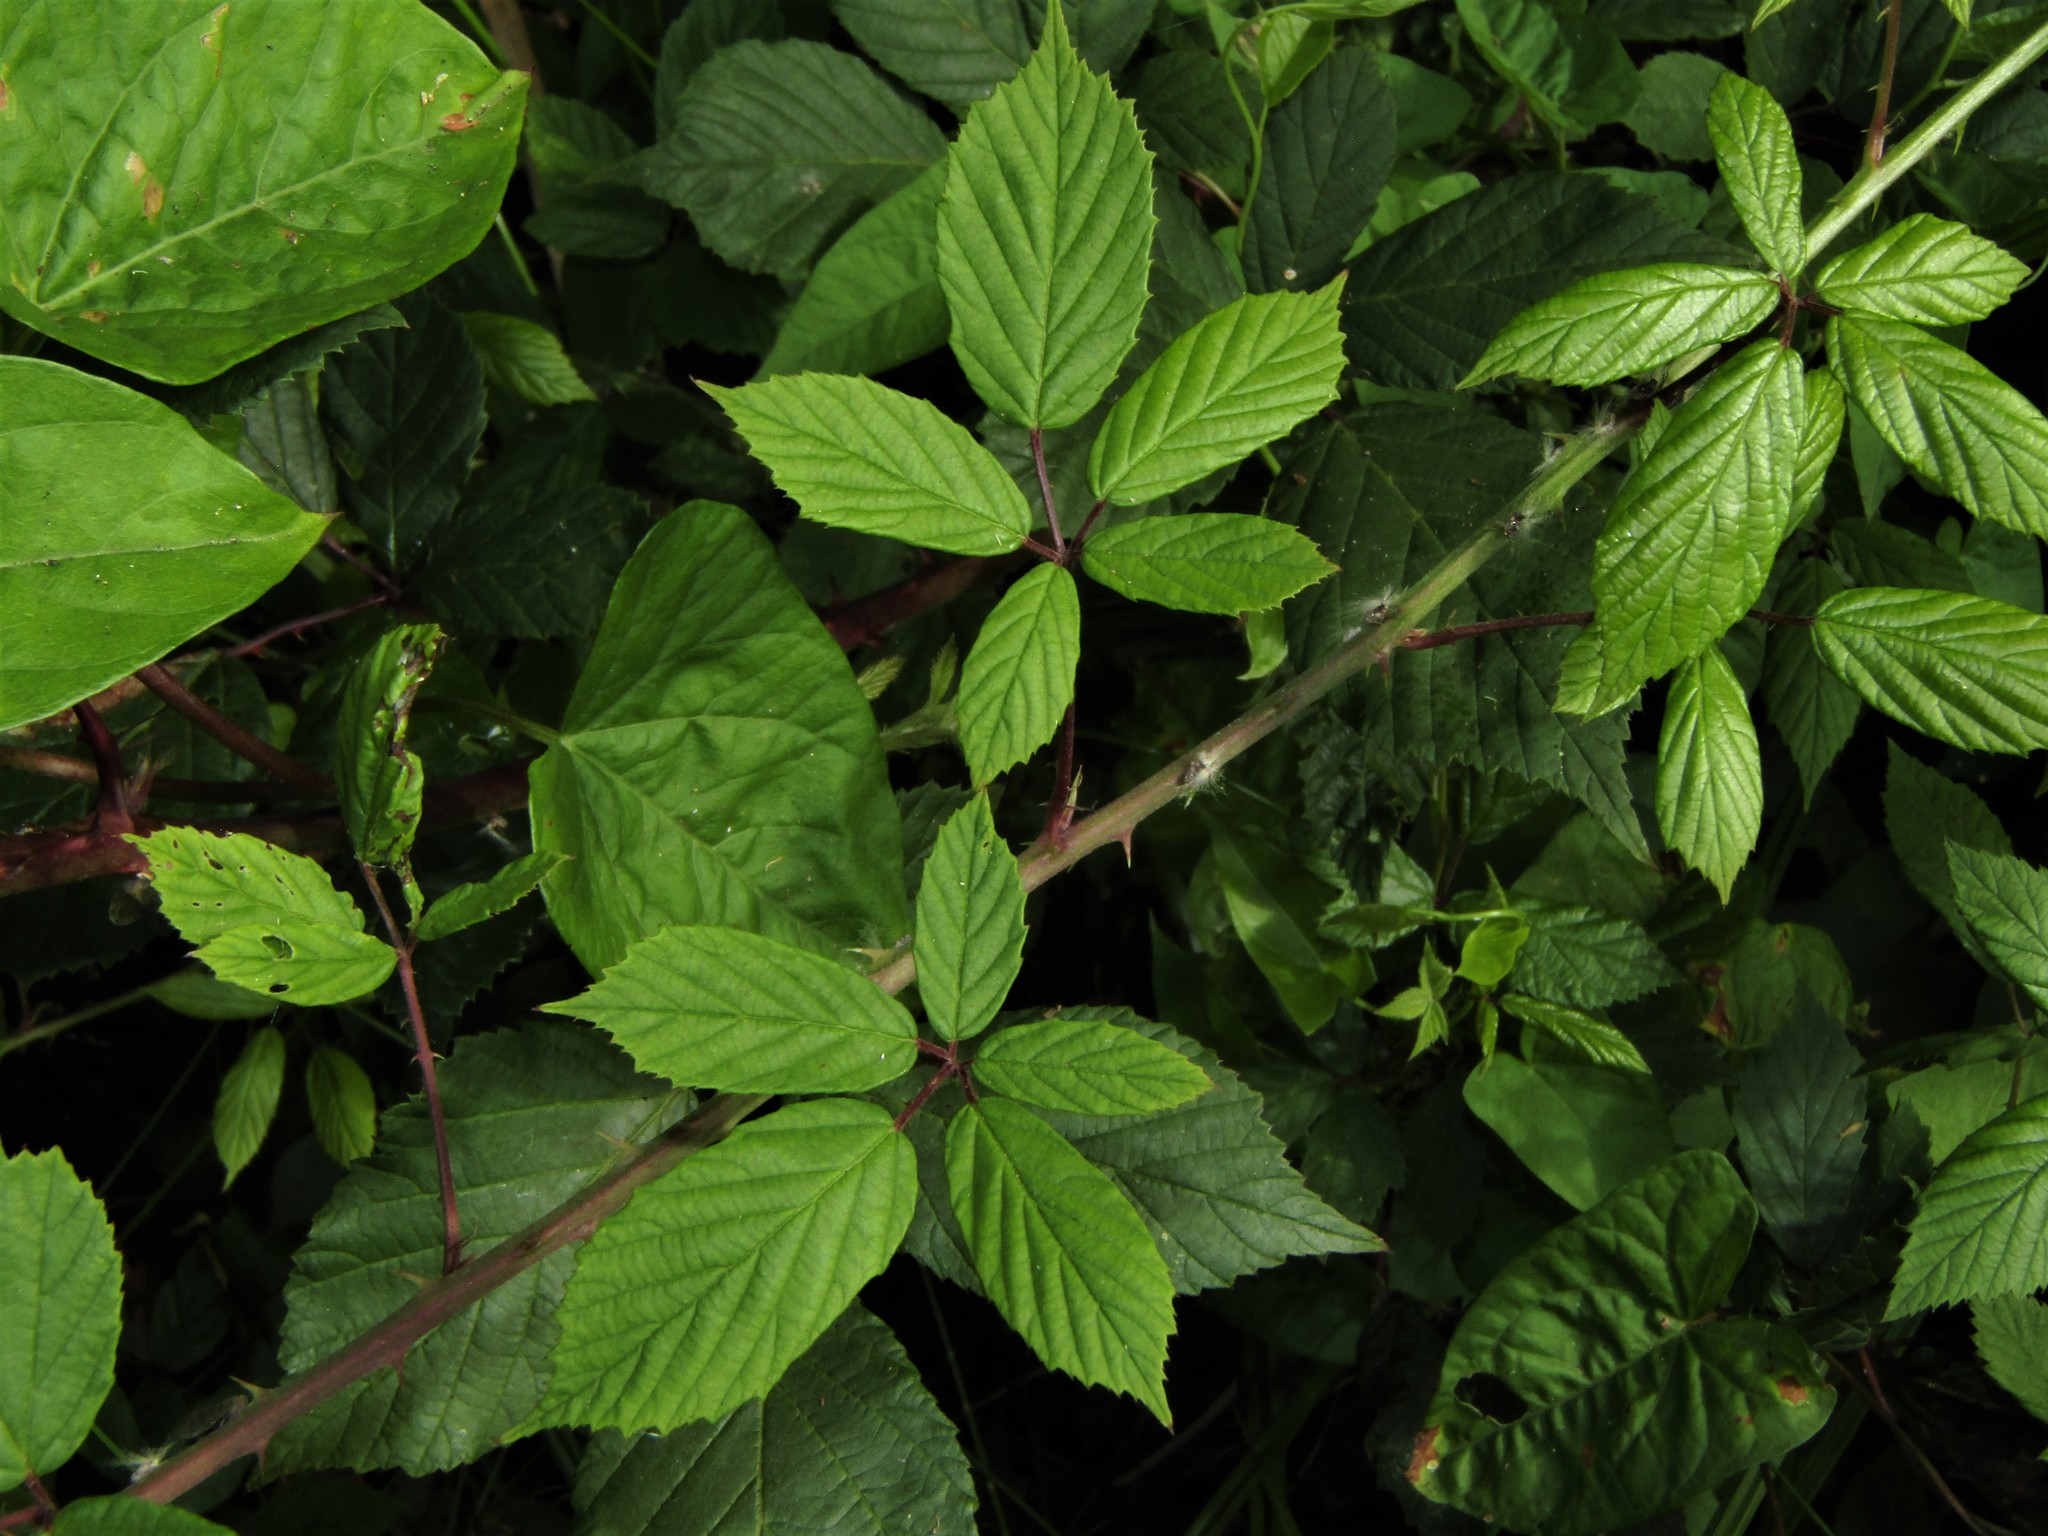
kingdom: Plantae
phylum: Tracheophyta
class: Magnoliopsida
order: Rosales
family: Rosaceae
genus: Rubus
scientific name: Rubus
